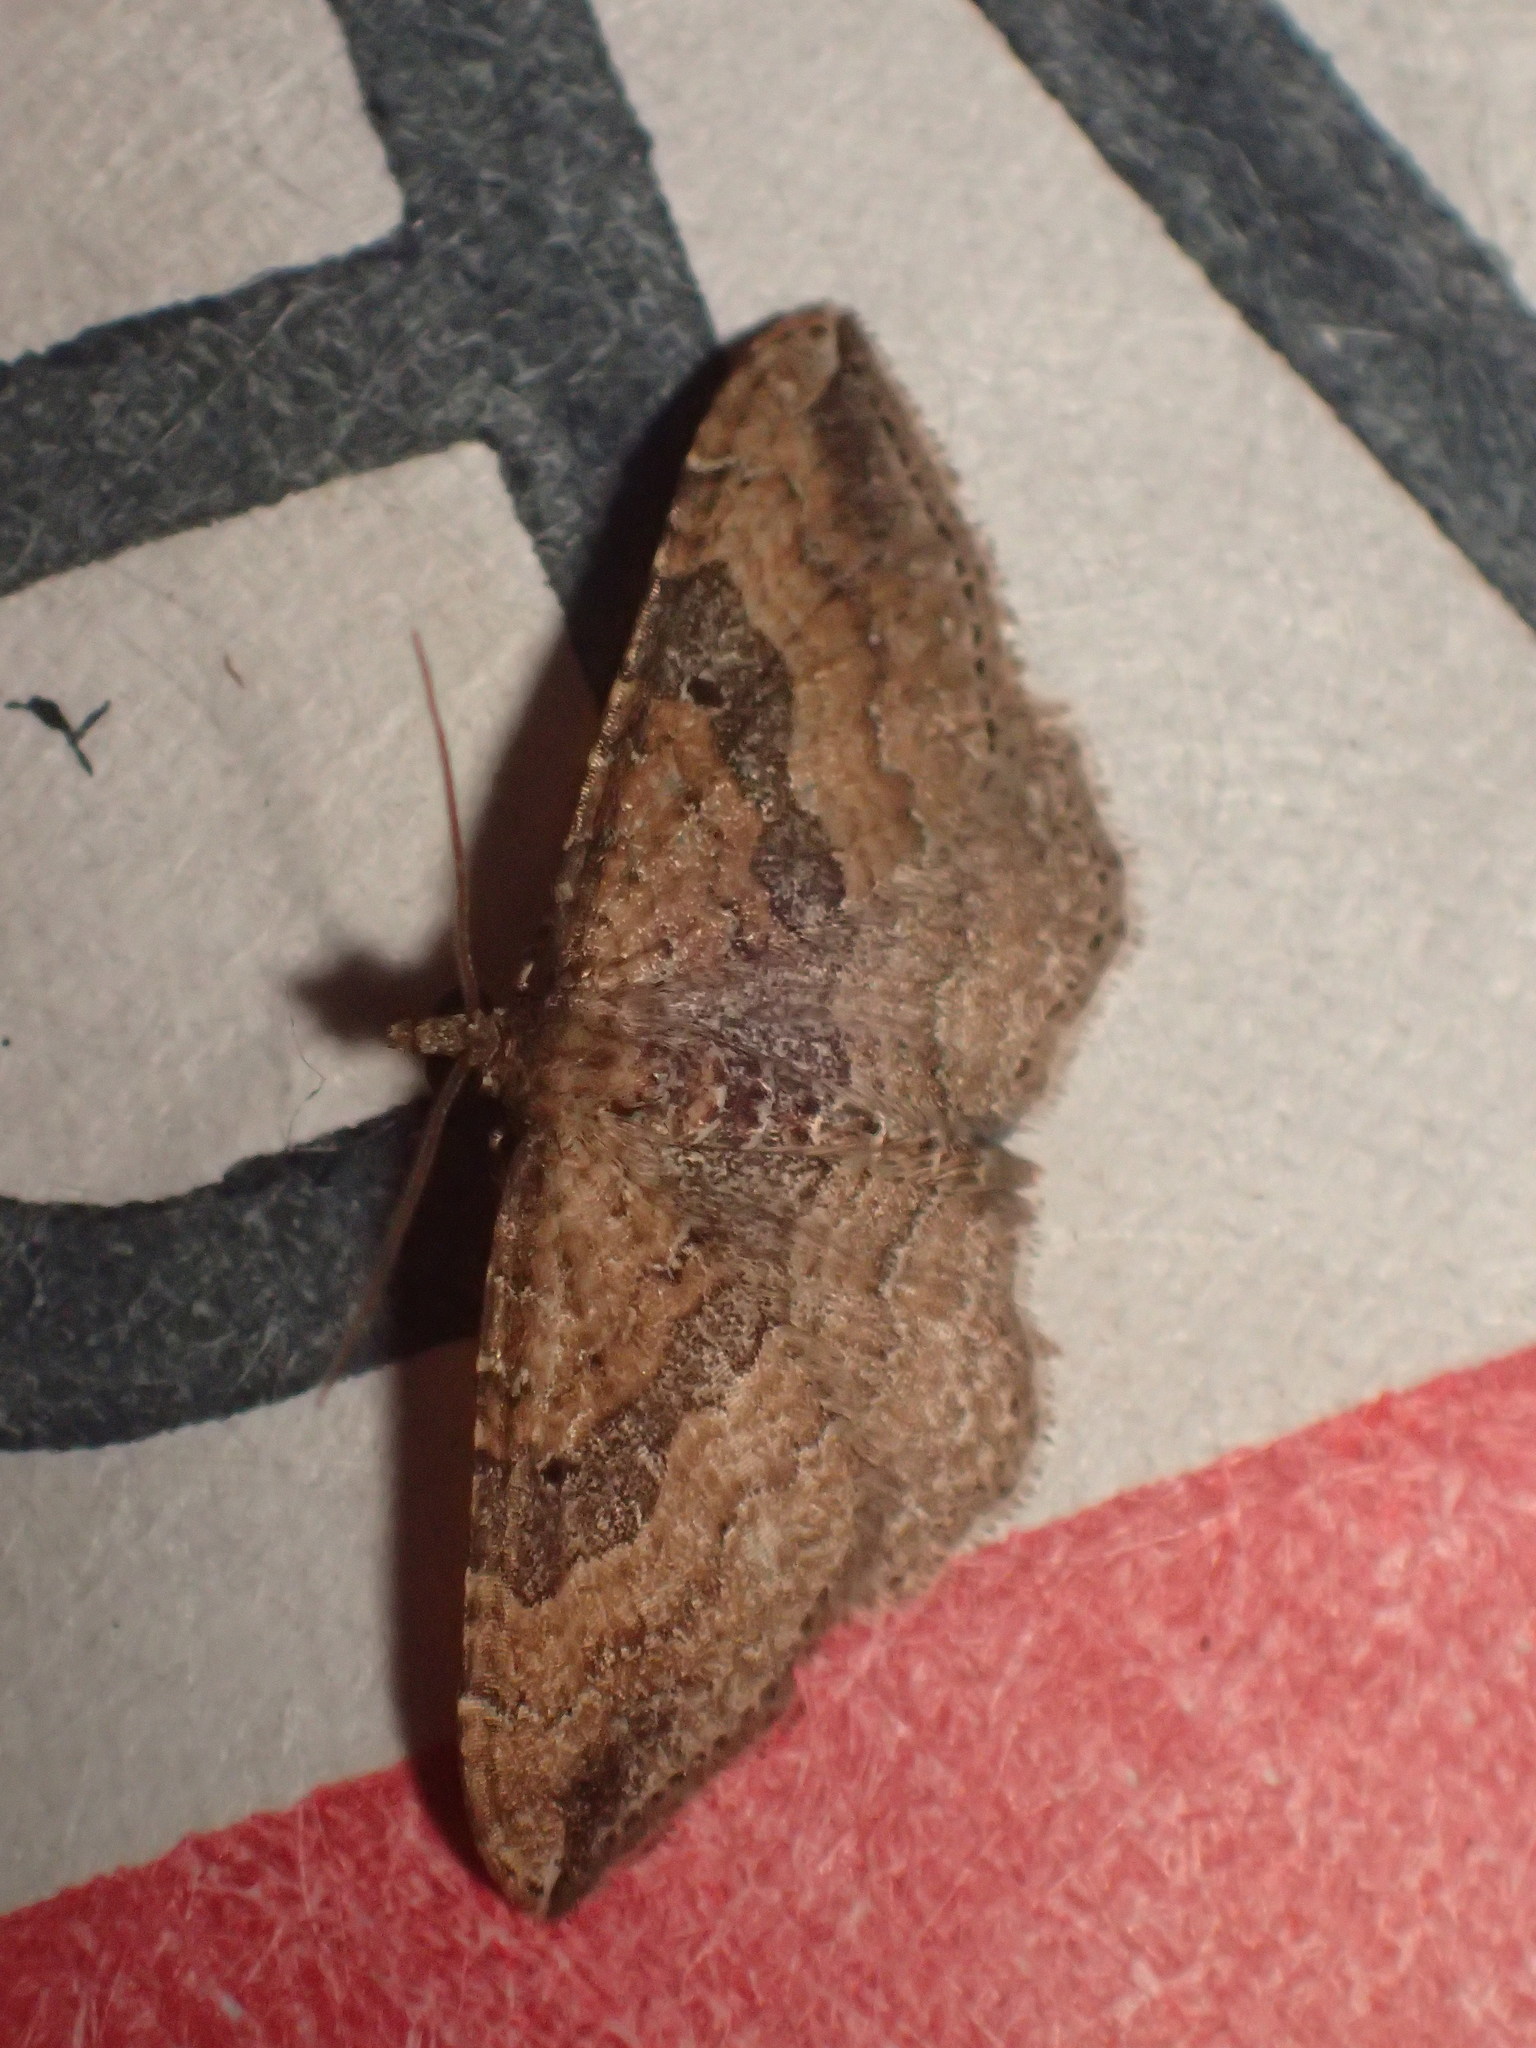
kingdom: Animalia
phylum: Arthropoda
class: Insecta
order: Lepidoptera
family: Geometridae
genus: Orthonama
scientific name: Orthonama obstipata
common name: The gem
